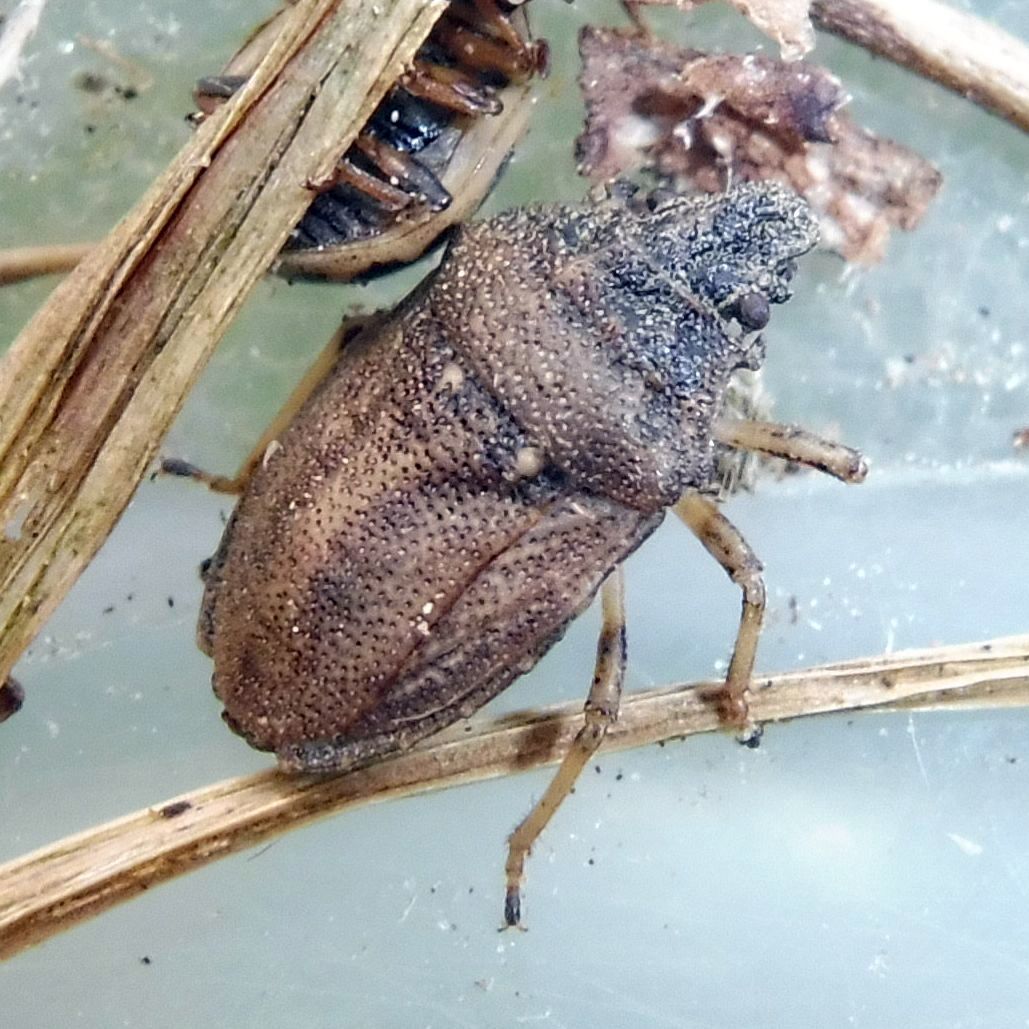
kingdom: Animalia
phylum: Arthropoda
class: Insecta
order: Hemiptera
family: Pentatomidae
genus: Podops
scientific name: Podops inunctus
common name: Turtle bug
